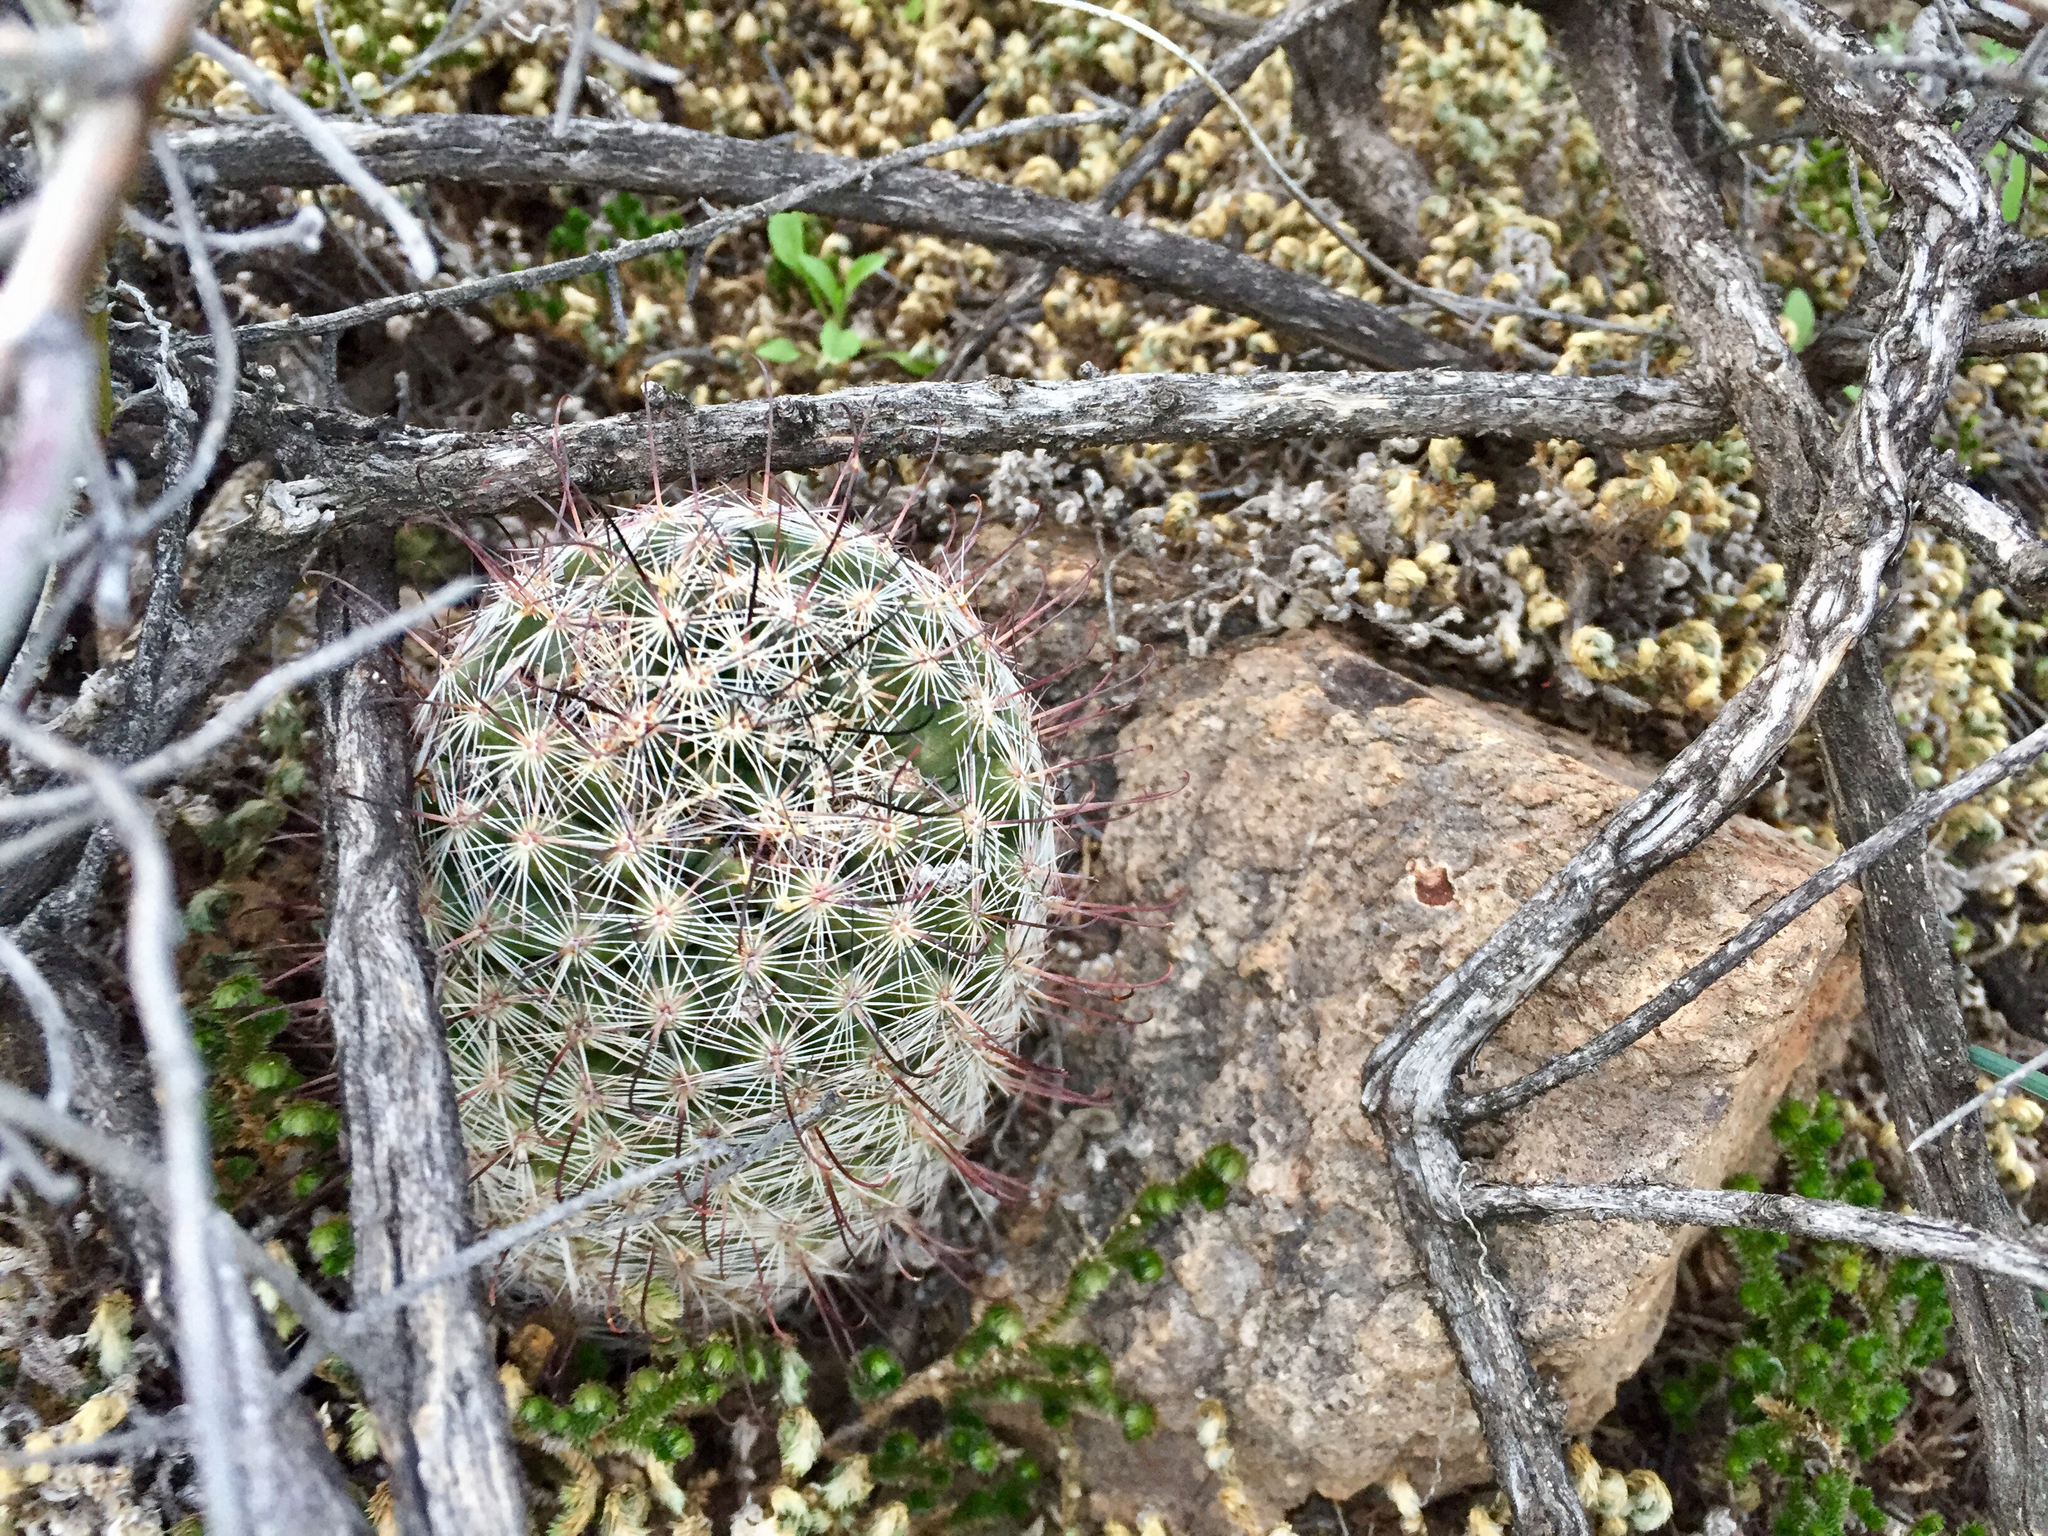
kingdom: Plantae
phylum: Tracheophyta
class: Magnoliopsida
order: Caryophyllales
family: Cactaceae
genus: Cochemiea
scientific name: Cochemiea grahamii
